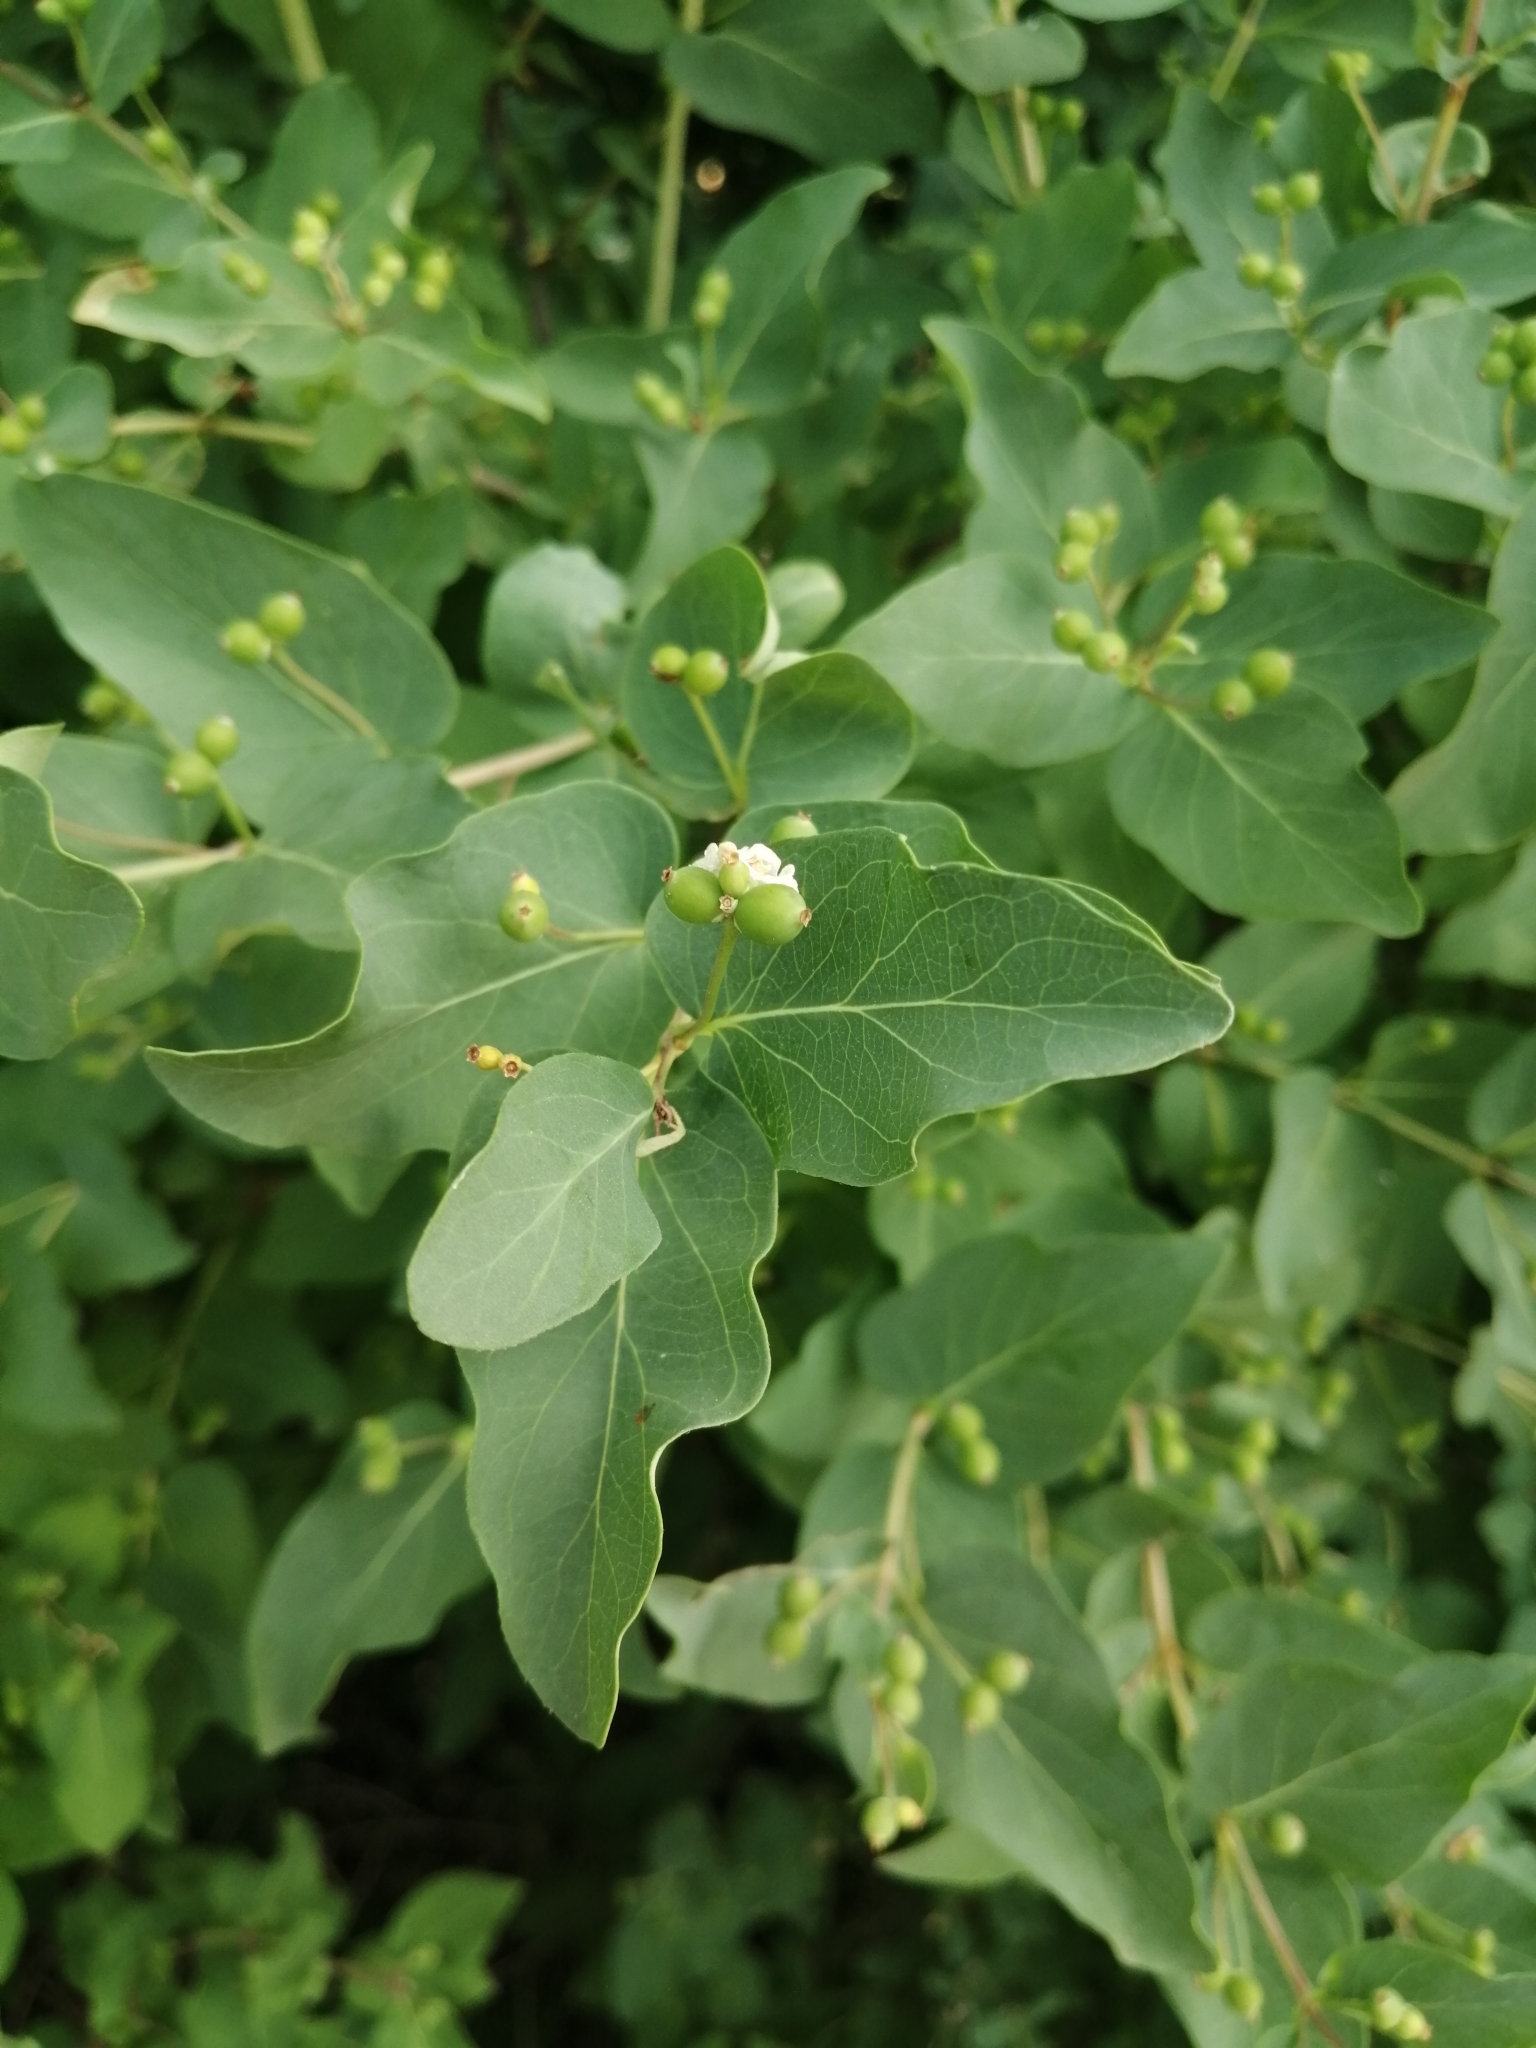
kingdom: Plantae
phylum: Tracheophyta
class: Magnoliopsida
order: Dipsacales
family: Caprifoliaceae
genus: Lonicera
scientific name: Lonicera tatarica
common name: Tatarian honeysuckle
